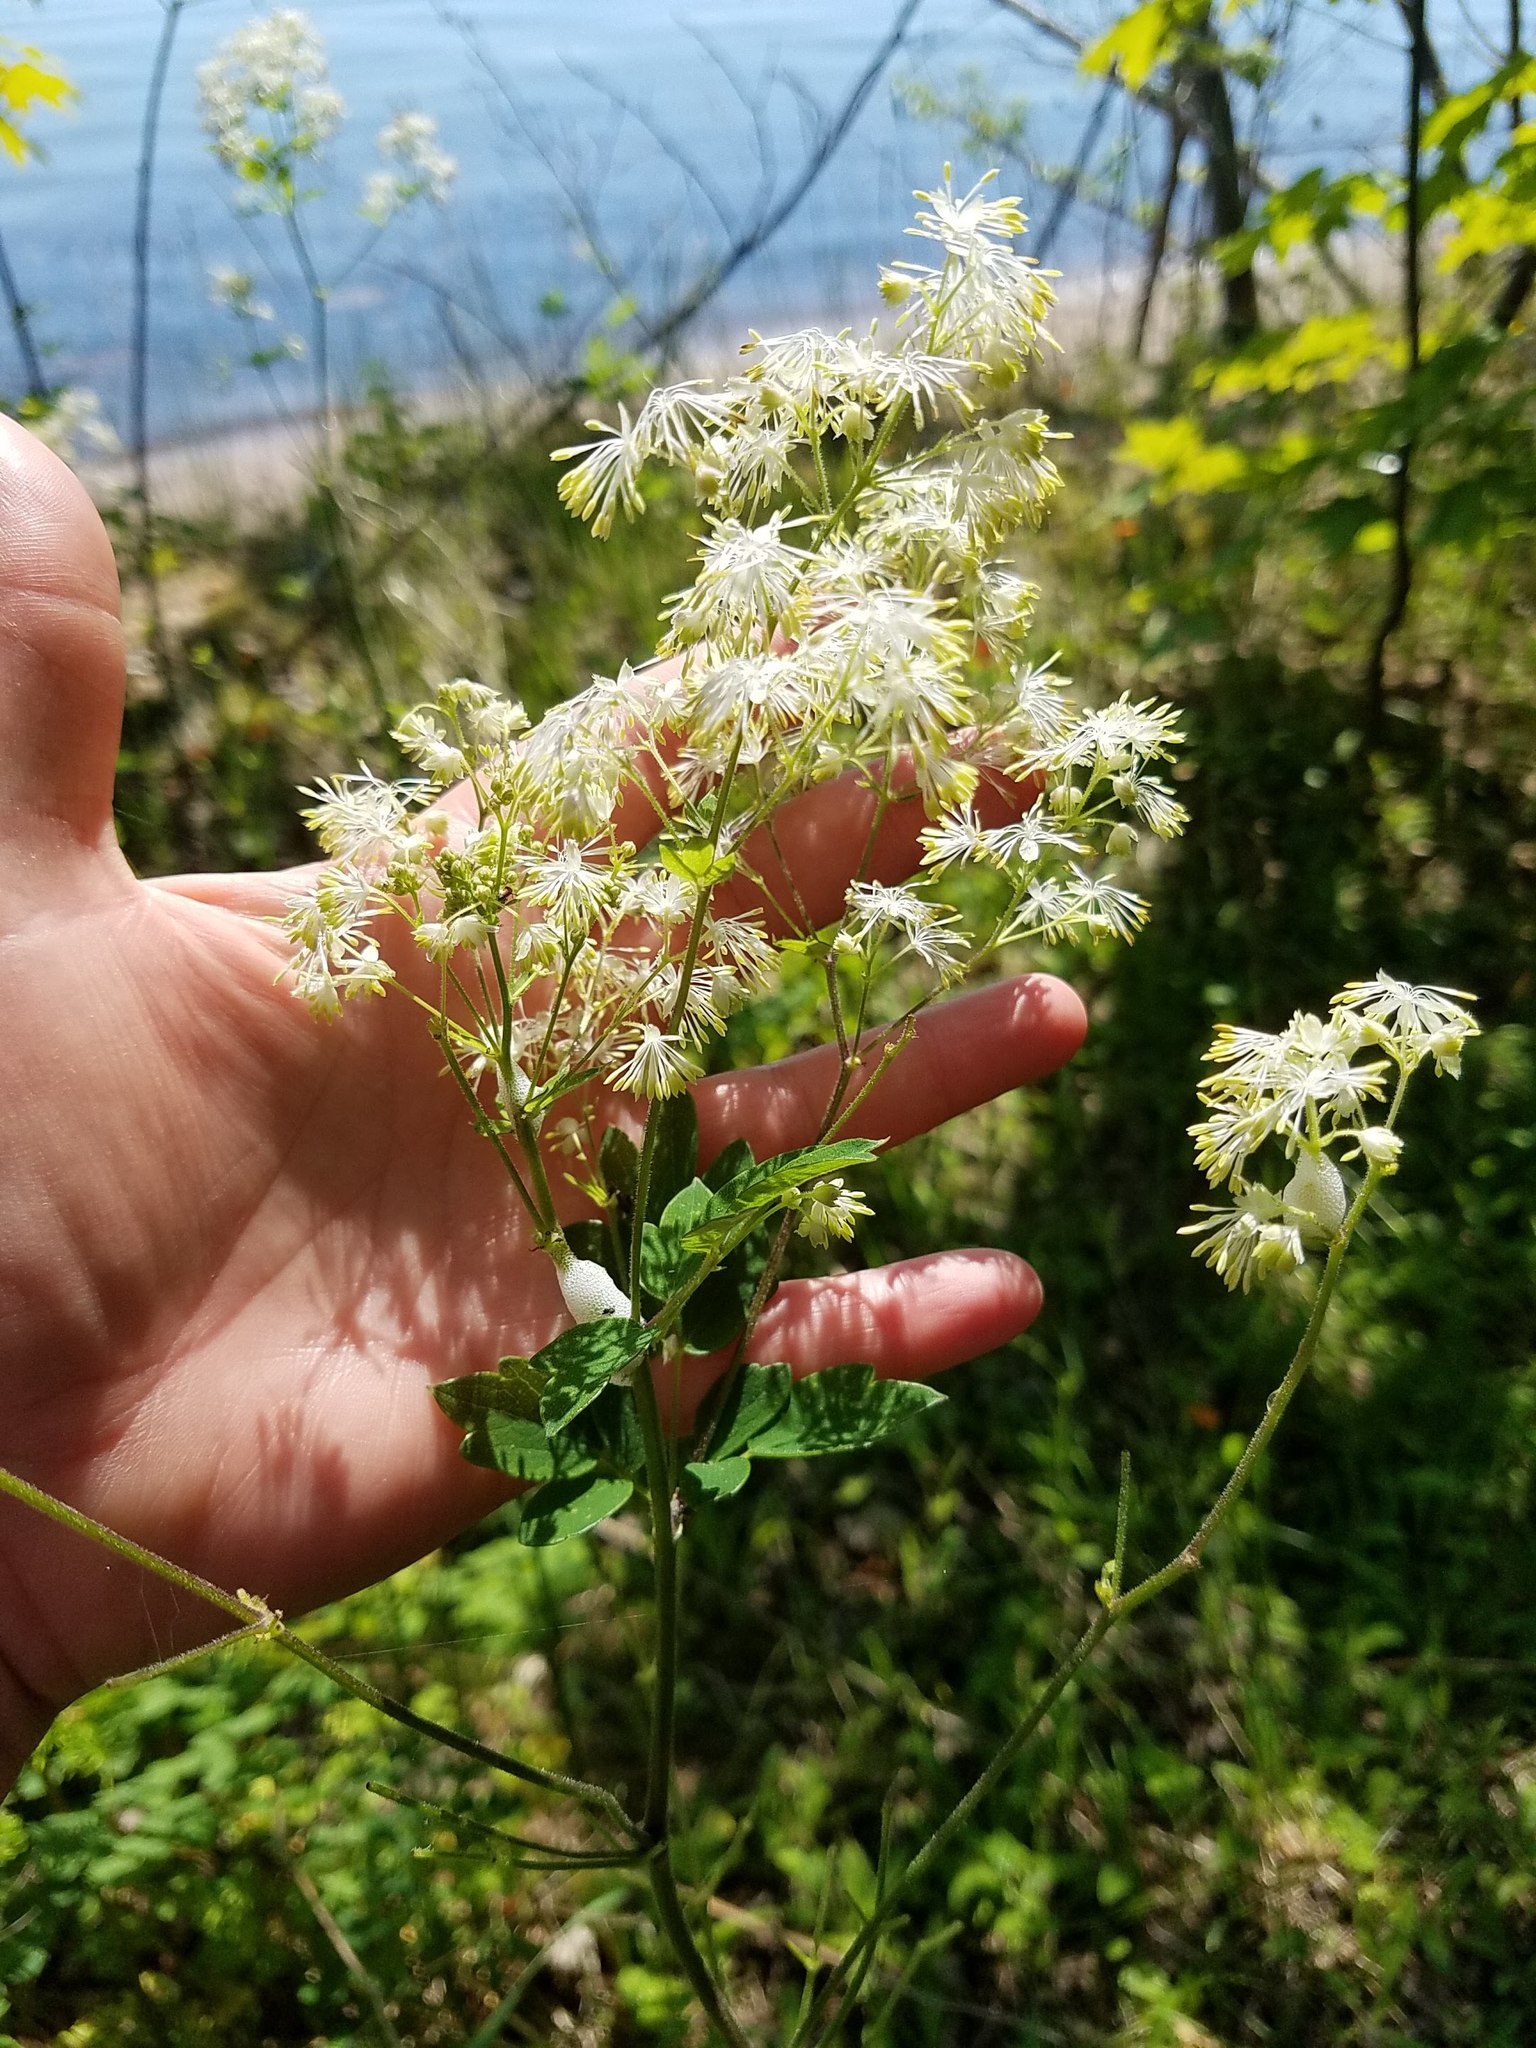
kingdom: Plantae
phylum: Tracheophyta
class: Magnoliopsida
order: Ranunculales
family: Ranunculaceae
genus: Thalictrum
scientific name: Thalictrum dasycarpum
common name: Purple meadow-rue
